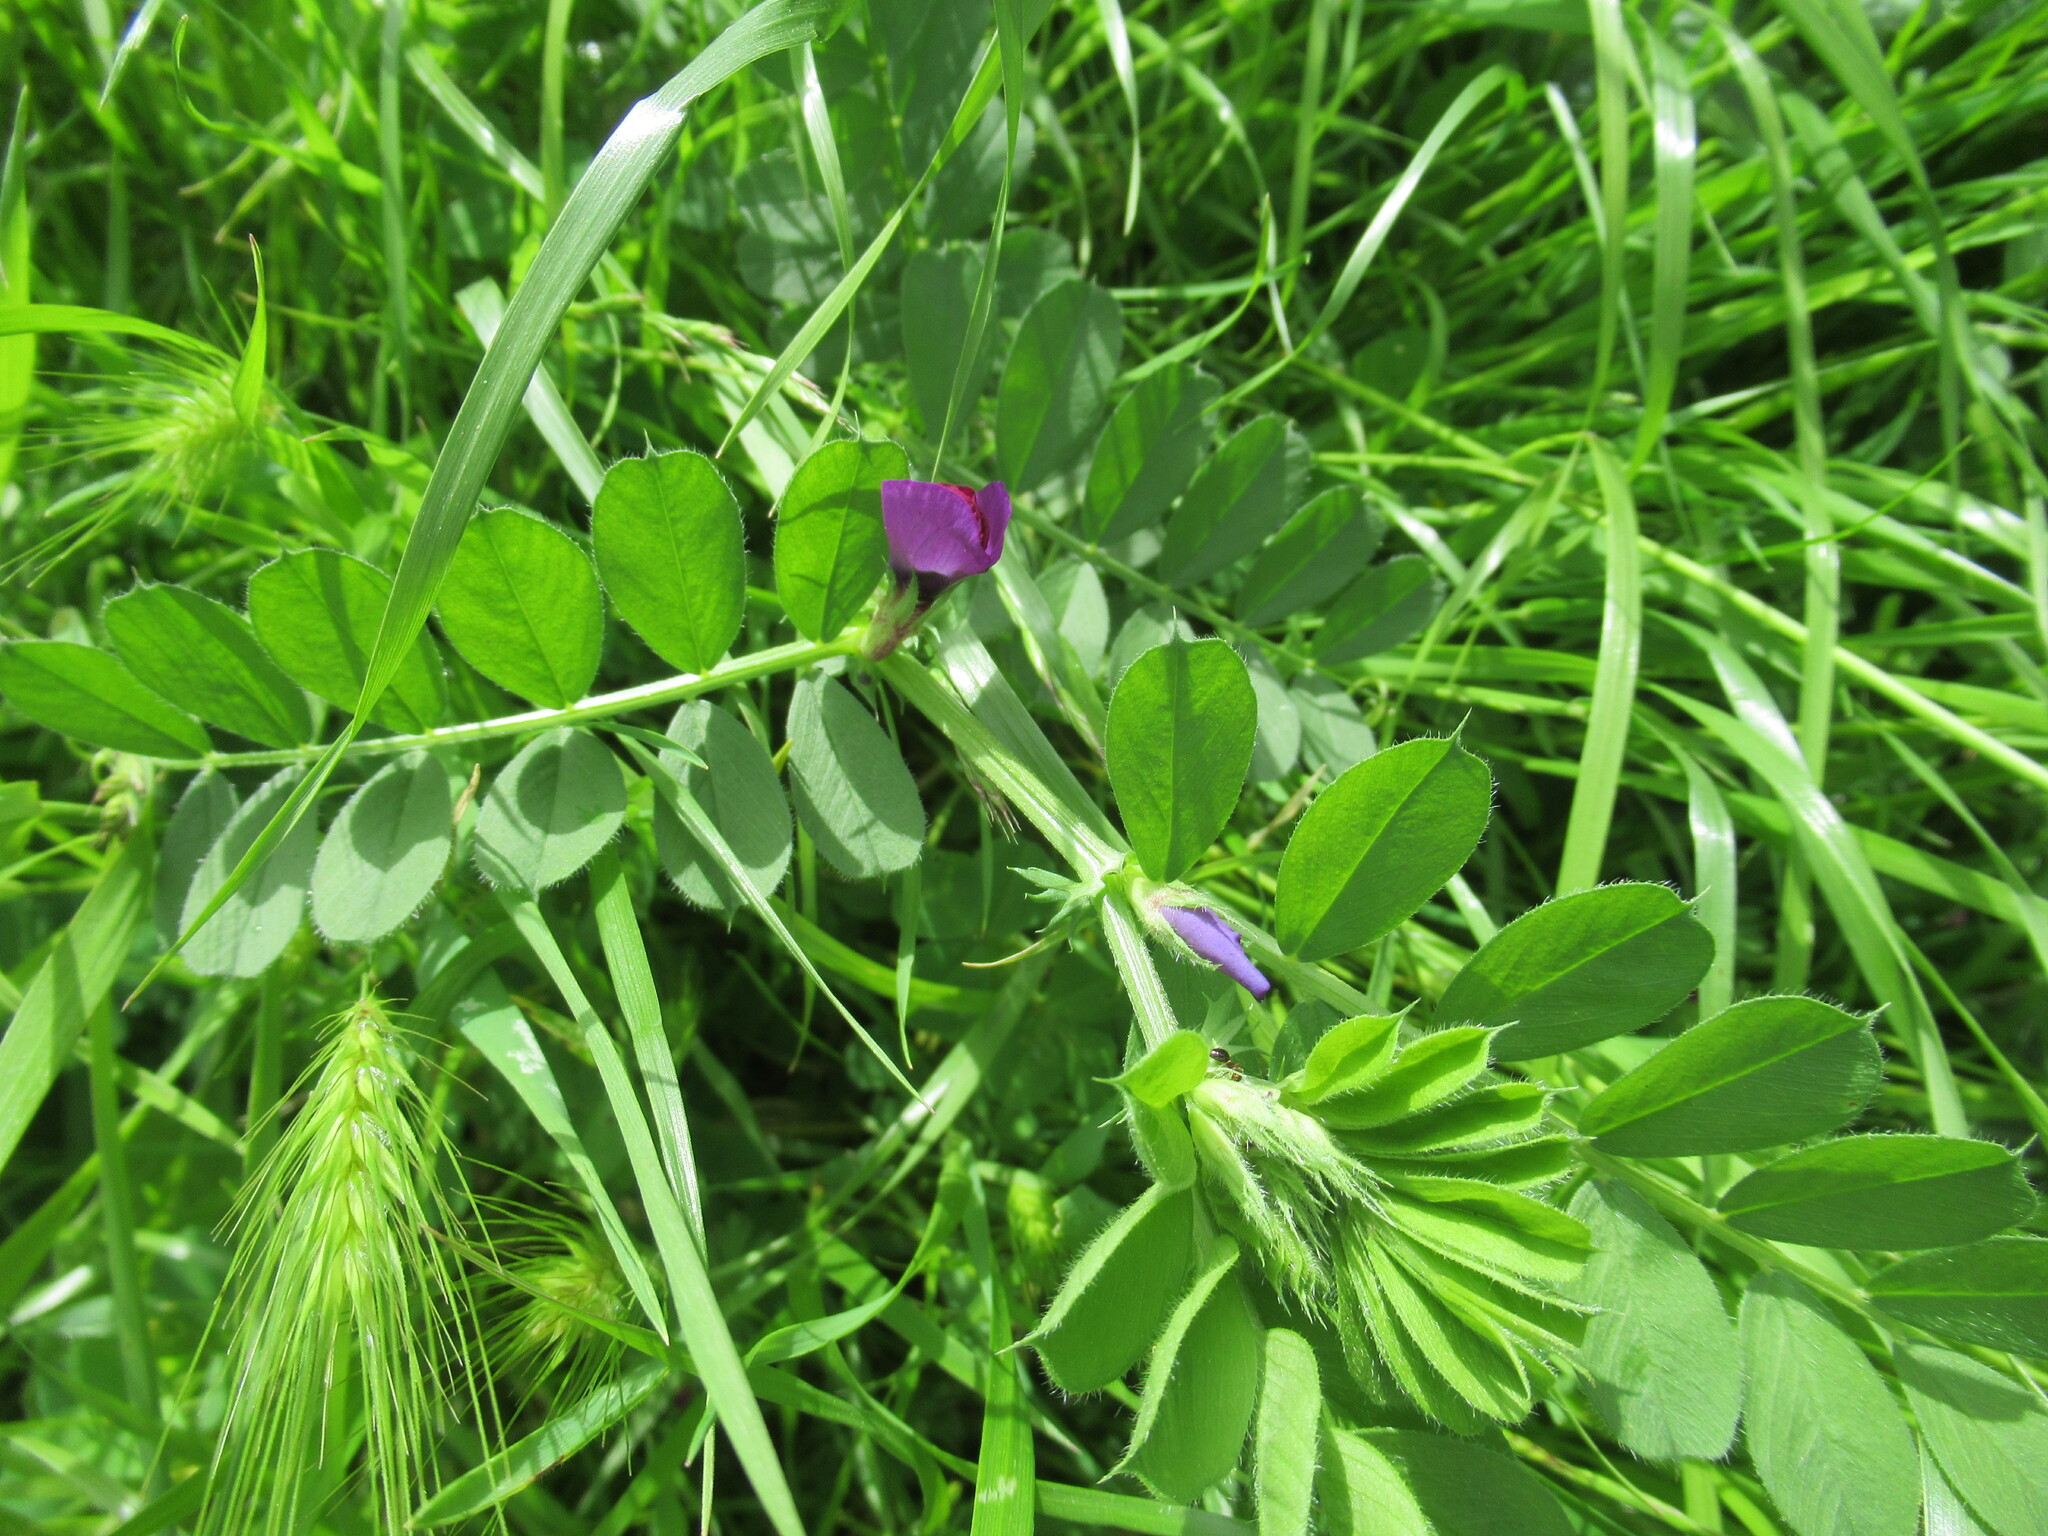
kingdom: Plantae
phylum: Tracheophyta
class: Magnoliopsida
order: Fabales
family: Fabaceae
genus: Vicia
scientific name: Vicia sativa
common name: Garden vetch
